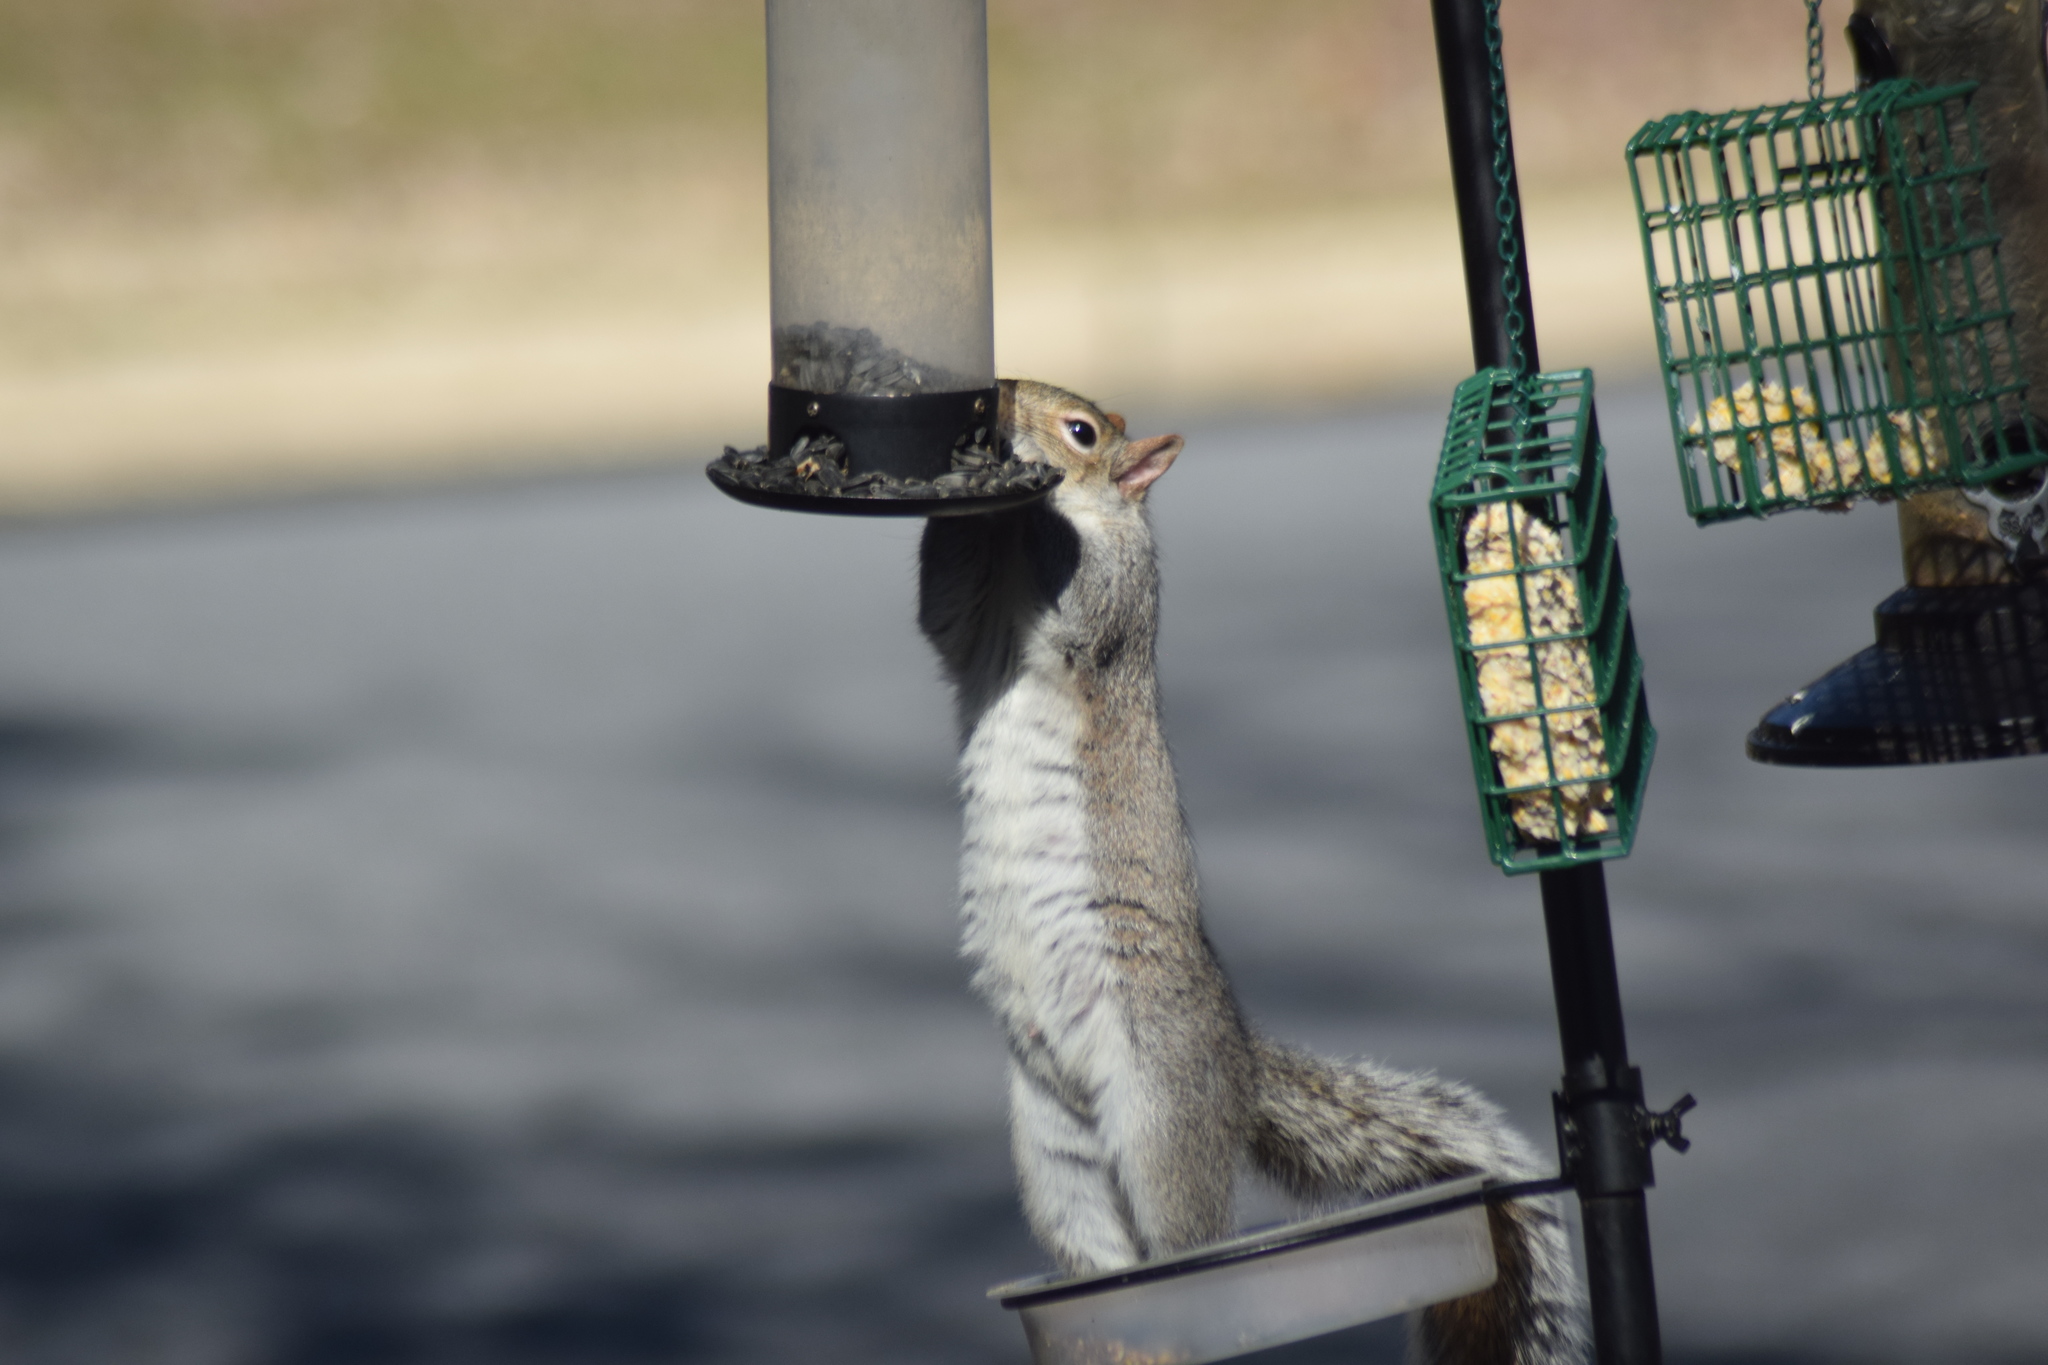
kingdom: Animalia
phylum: Chordata
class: Mammalia
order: Rodentia
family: Sciuridae
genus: Sciurus
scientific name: Sciurus carolinensis
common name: Eastern gray squirrel
